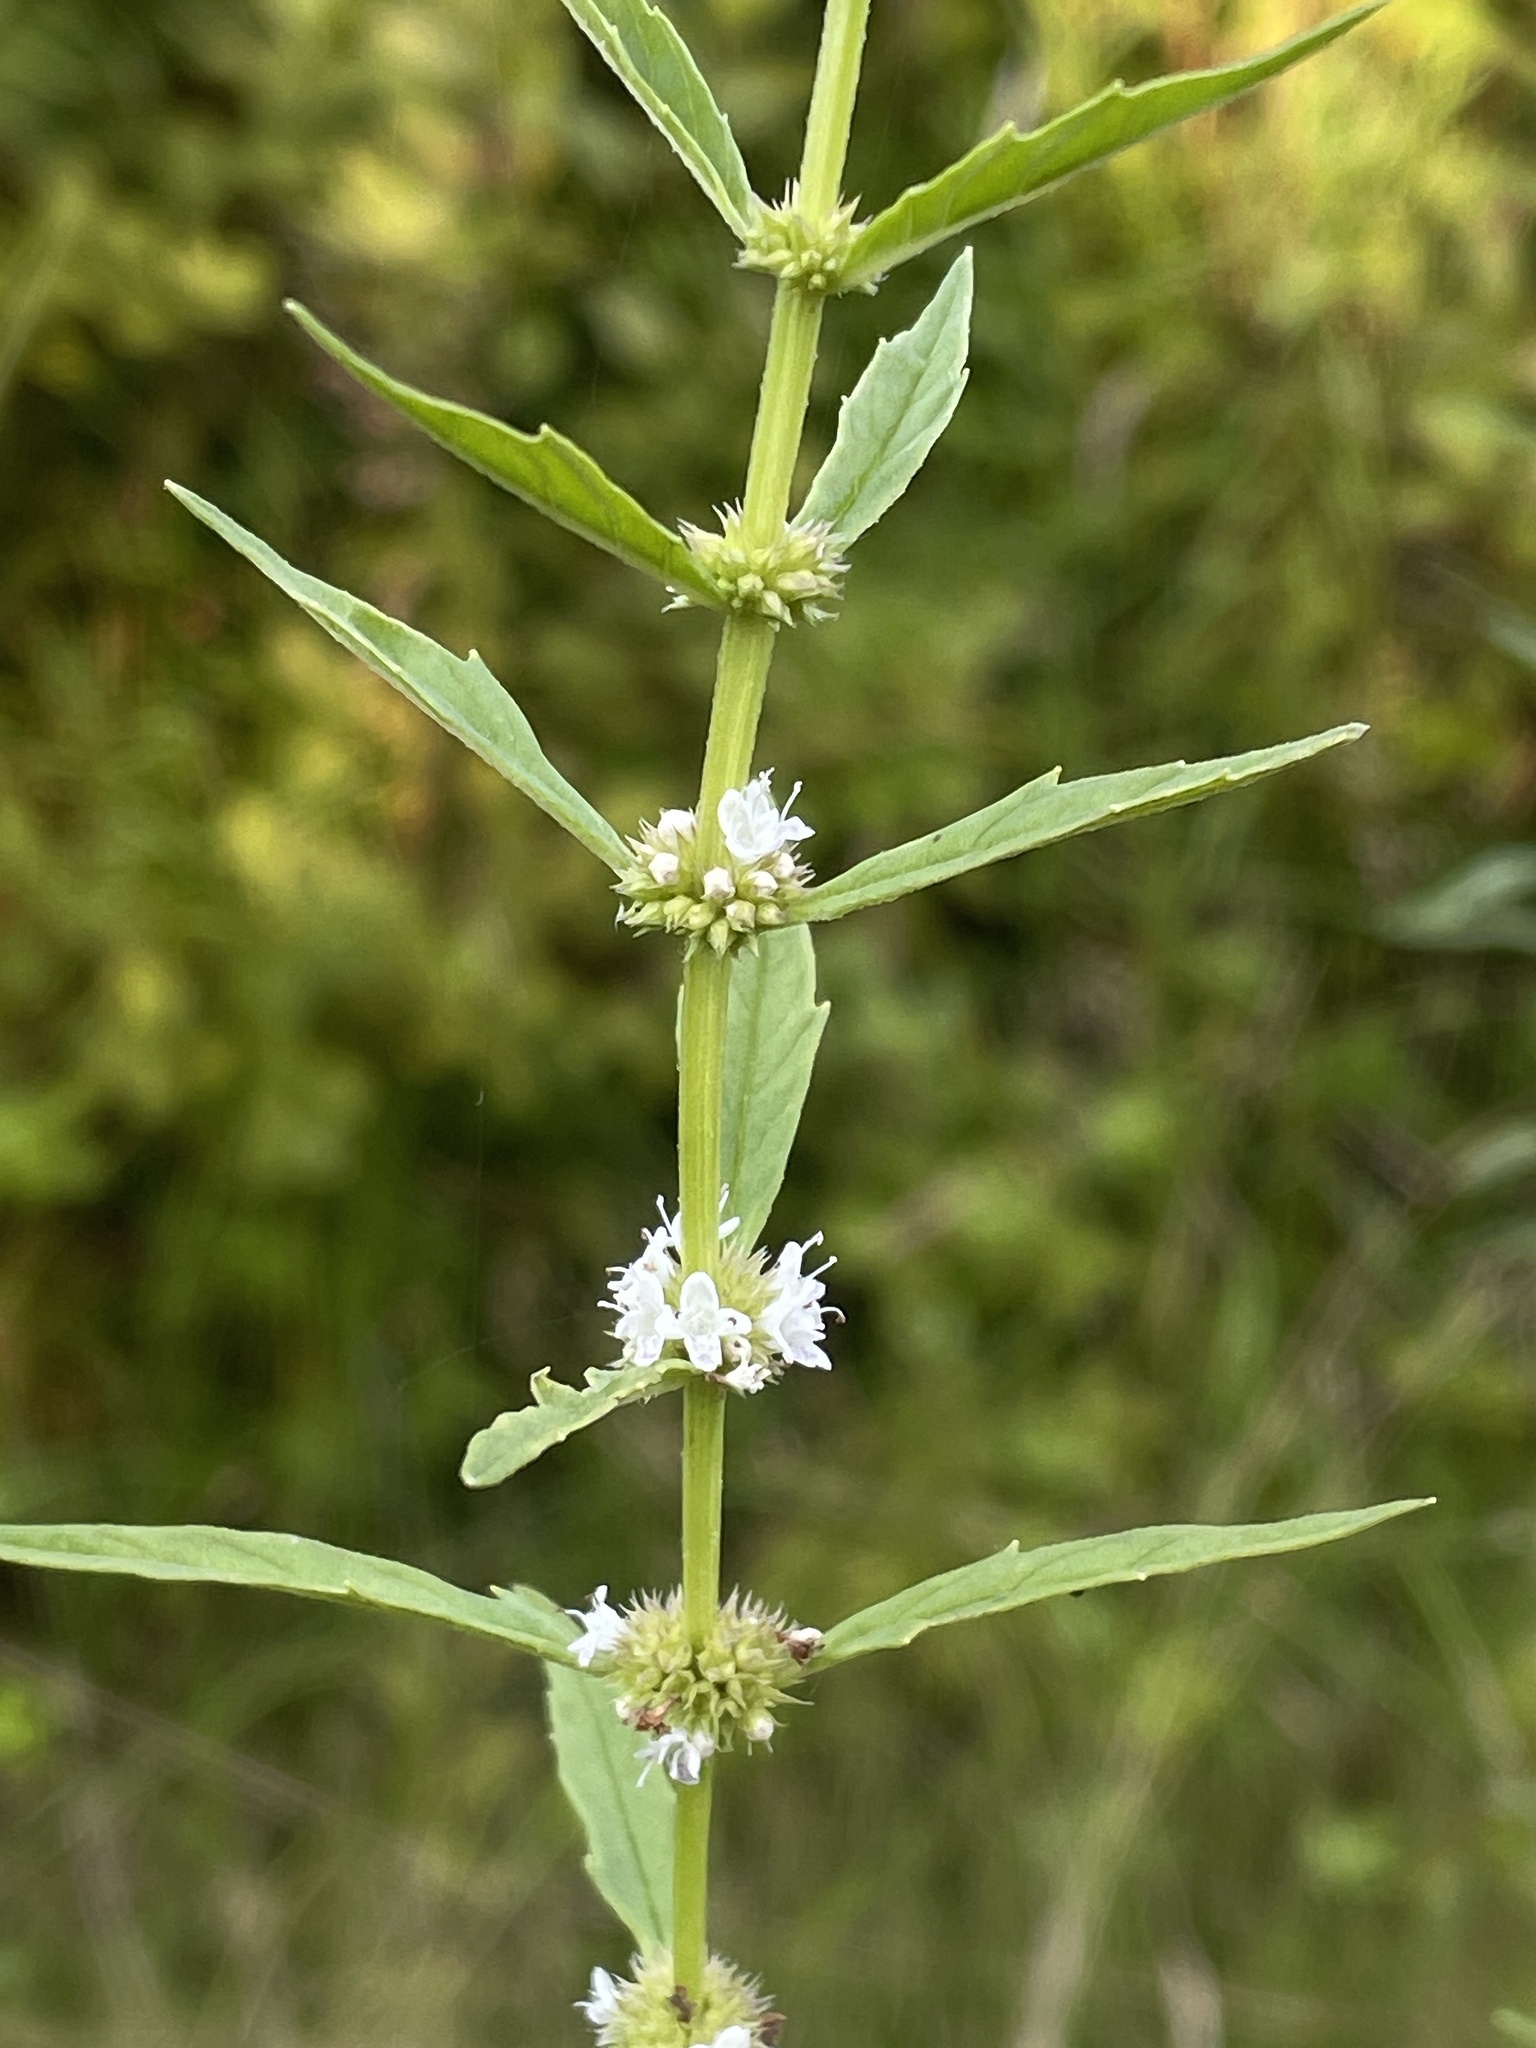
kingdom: Plantae
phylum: Tracheophyta
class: Magnoliopsida
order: Lamiales
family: Lamiaceae
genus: Lycopus
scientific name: Lycopus uniflorus
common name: Northern bugleweed
